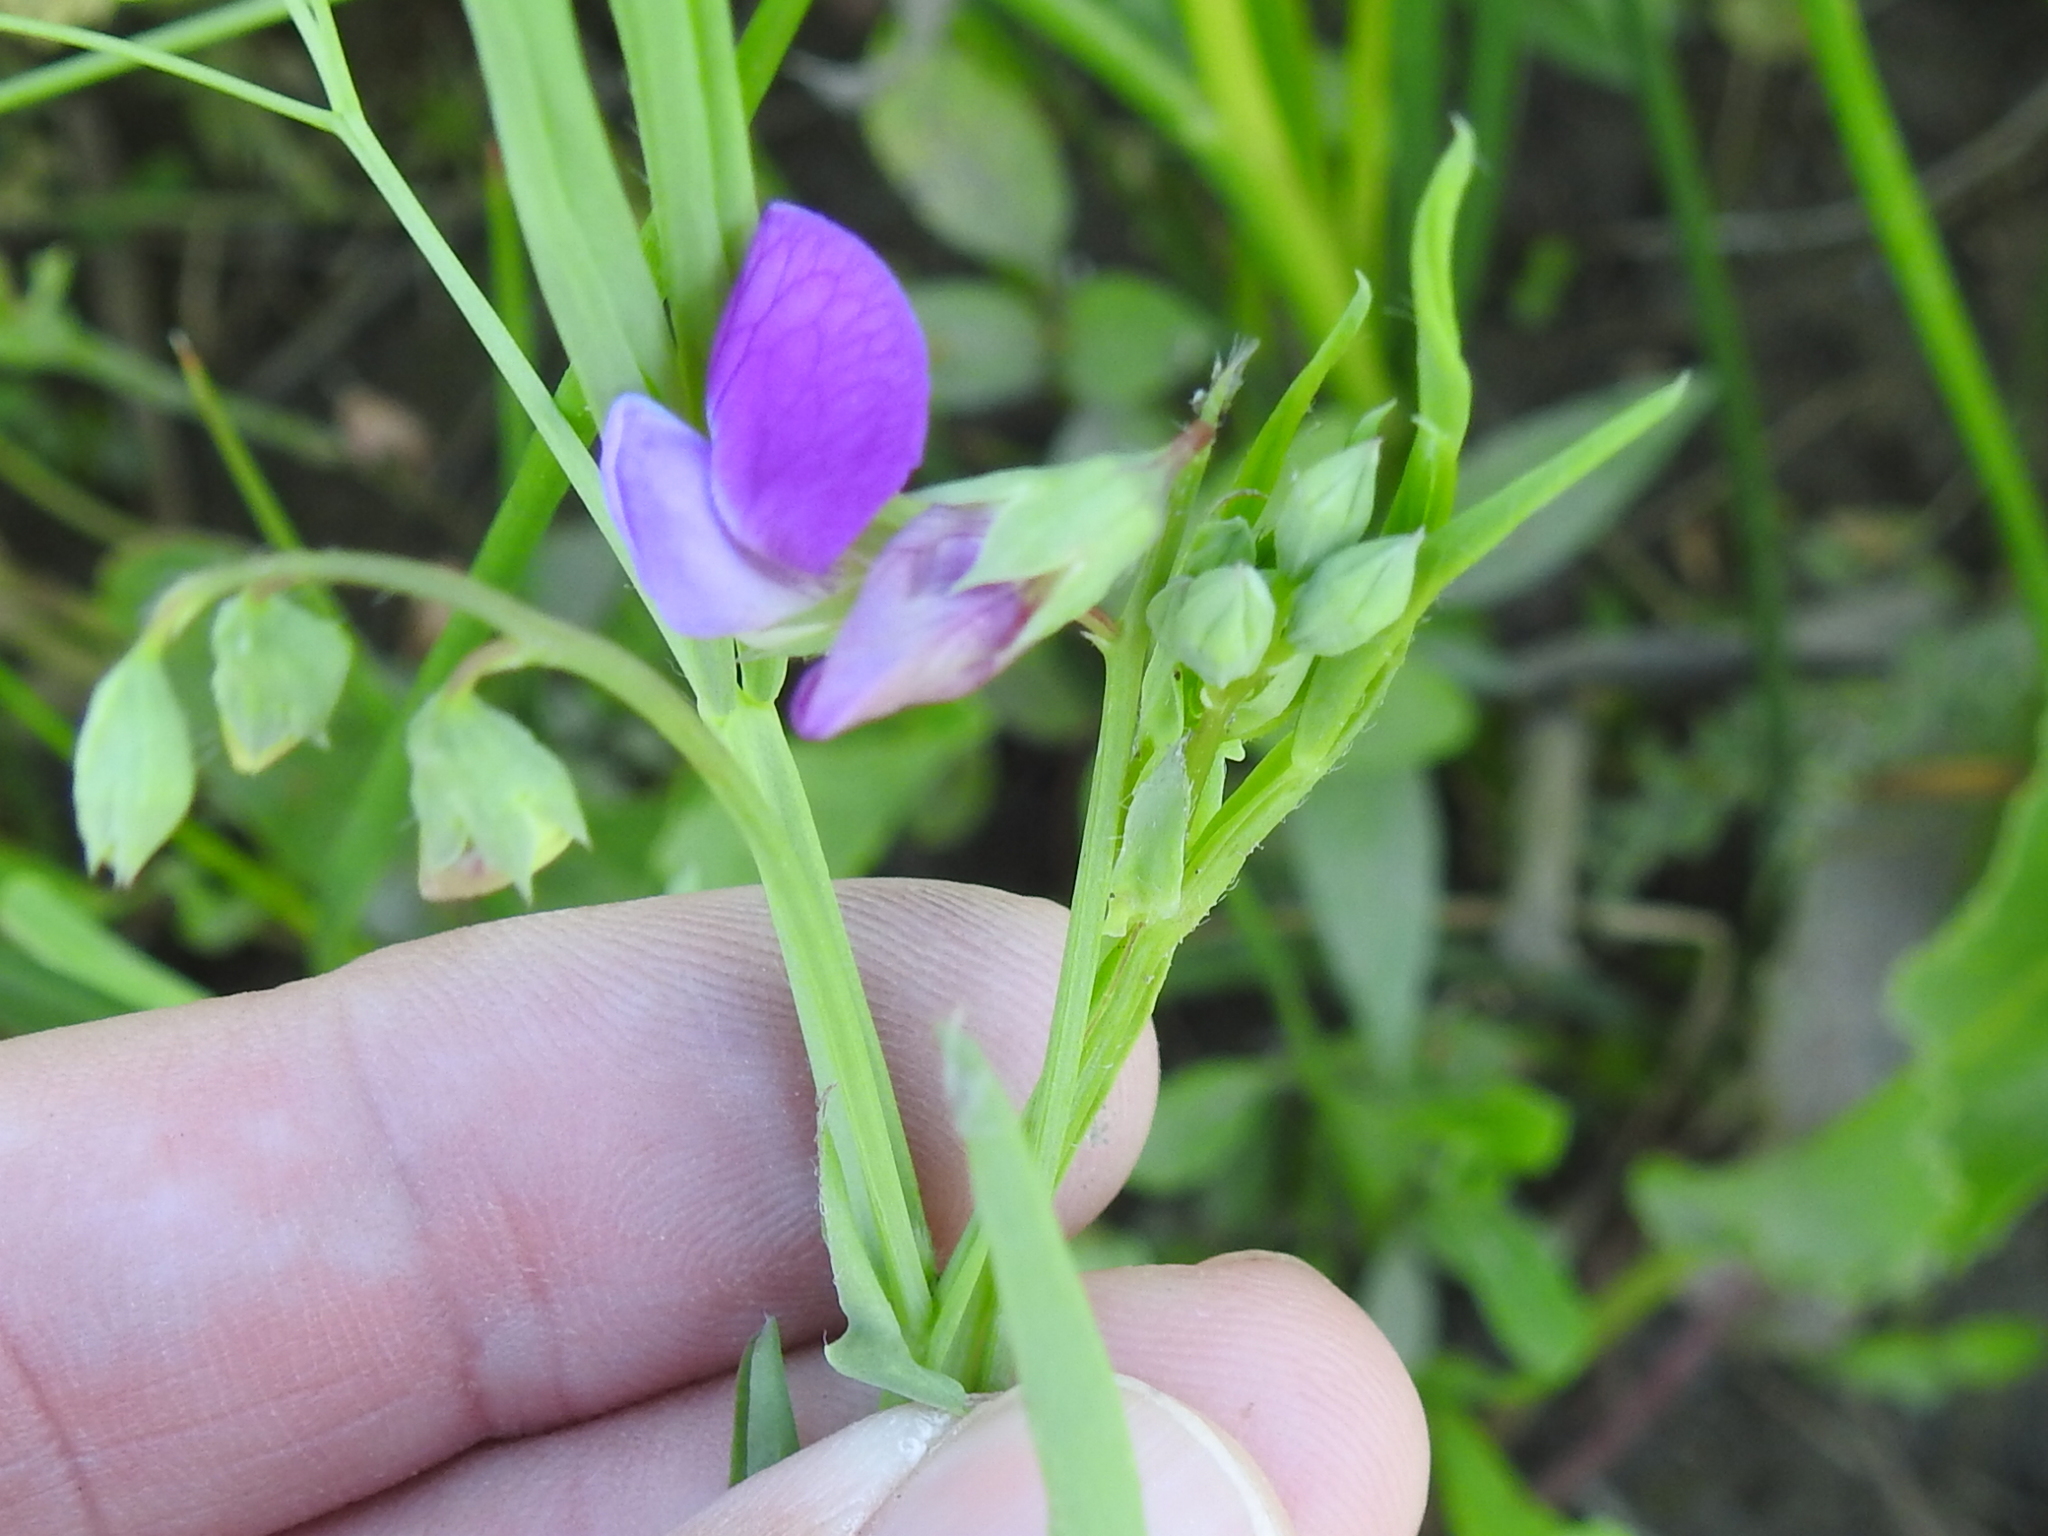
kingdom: Plantae
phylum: Tracheophyta
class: Magnoliopsida
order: Fabales
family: Fabaceae
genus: Lathyrus
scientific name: Lathyrus hirsutus
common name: Hairy vetchling
